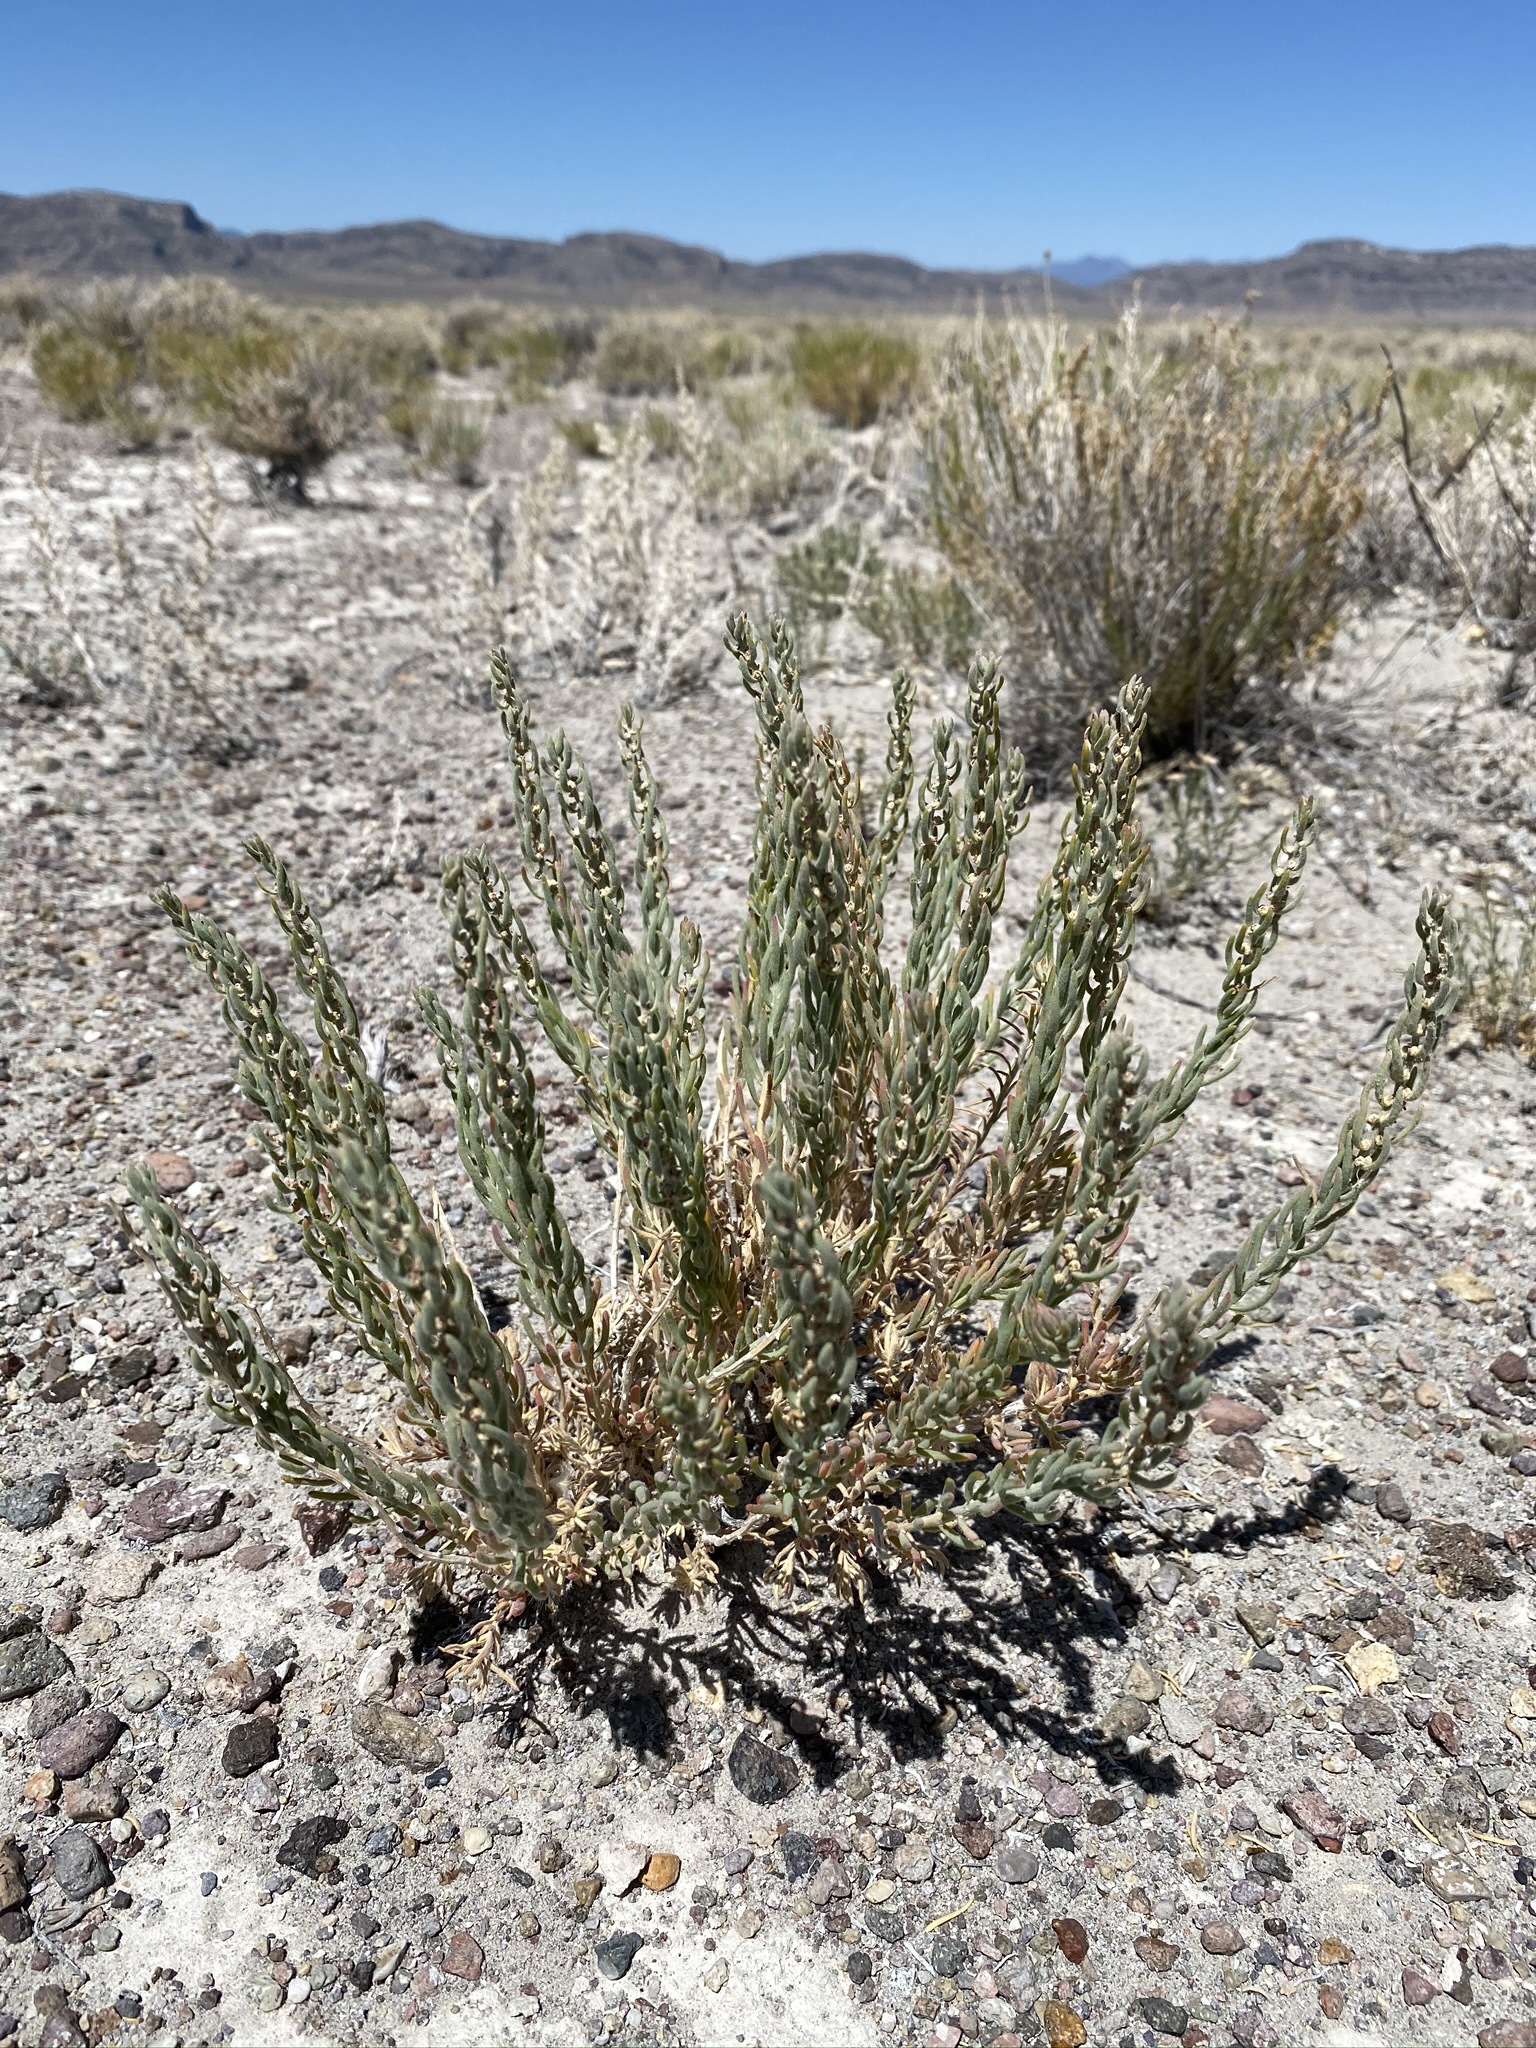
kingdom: Plantae
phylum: Tracheophyta
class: Magnoliopsida
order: Caryophyllales
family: Amaranthaceae
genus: Neokochia
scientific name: Neokochia americana
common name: Perennial summer-cypress
